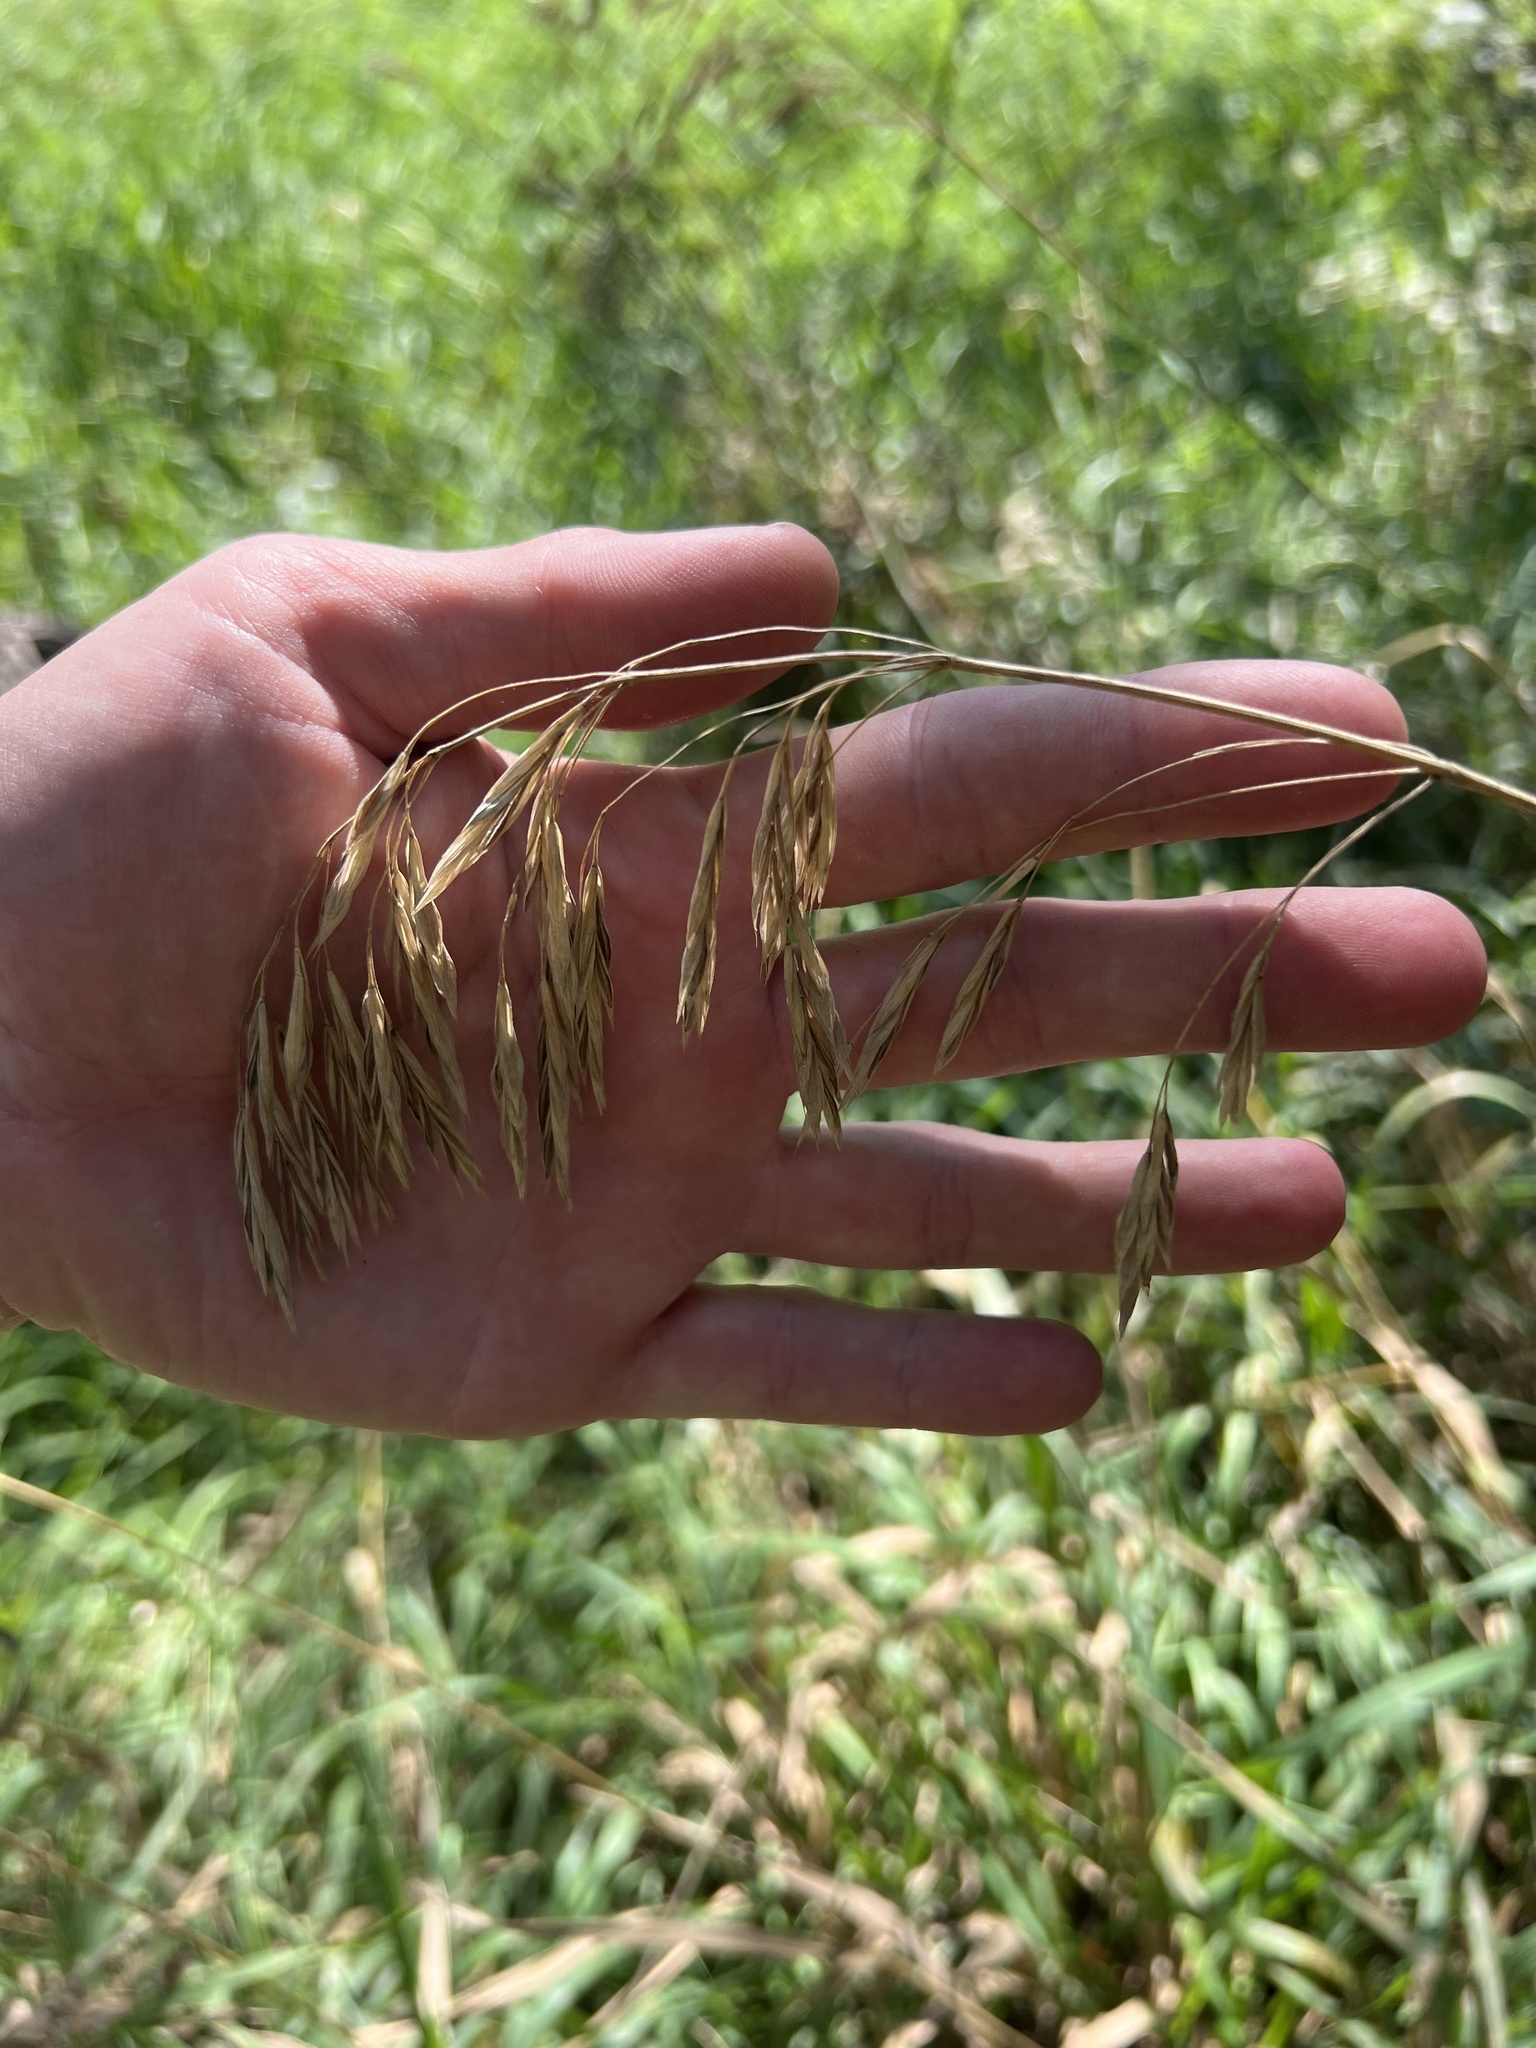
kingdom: Plantae
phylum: Tracheophyta
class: Liliopsida
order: Poales
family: Poaceae
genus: Bromus
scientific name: Bromus inermis
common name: Smooth brome
